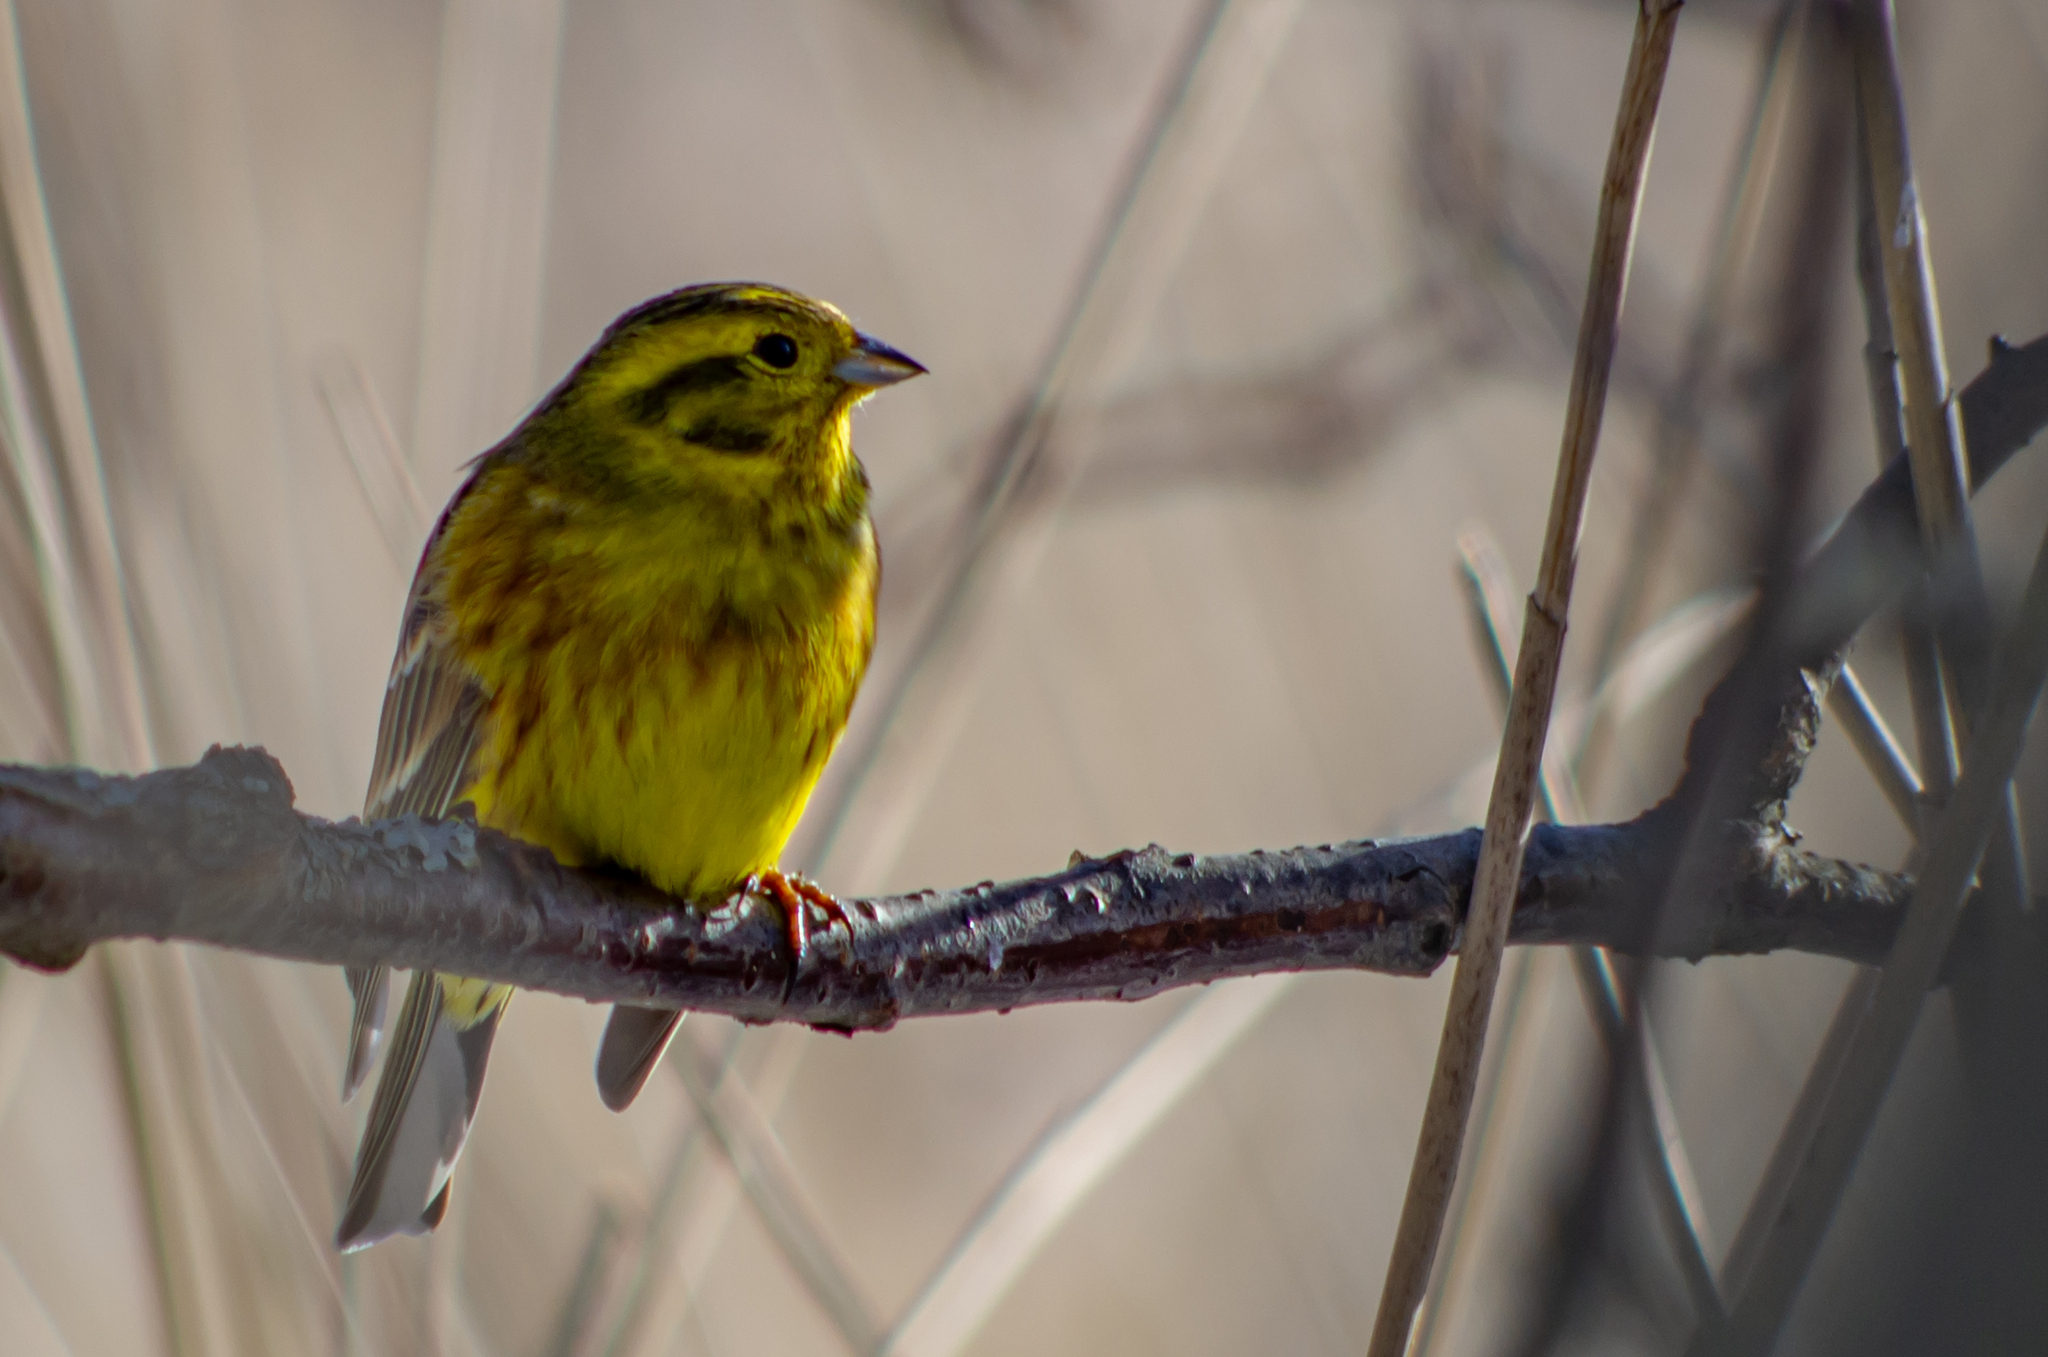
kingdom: Animalia
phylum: Chordata
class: Aves
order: Passeriformes
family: Emberizidae
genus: Emberiza
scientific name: Emberiza citrinella
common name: Yellowhammer
